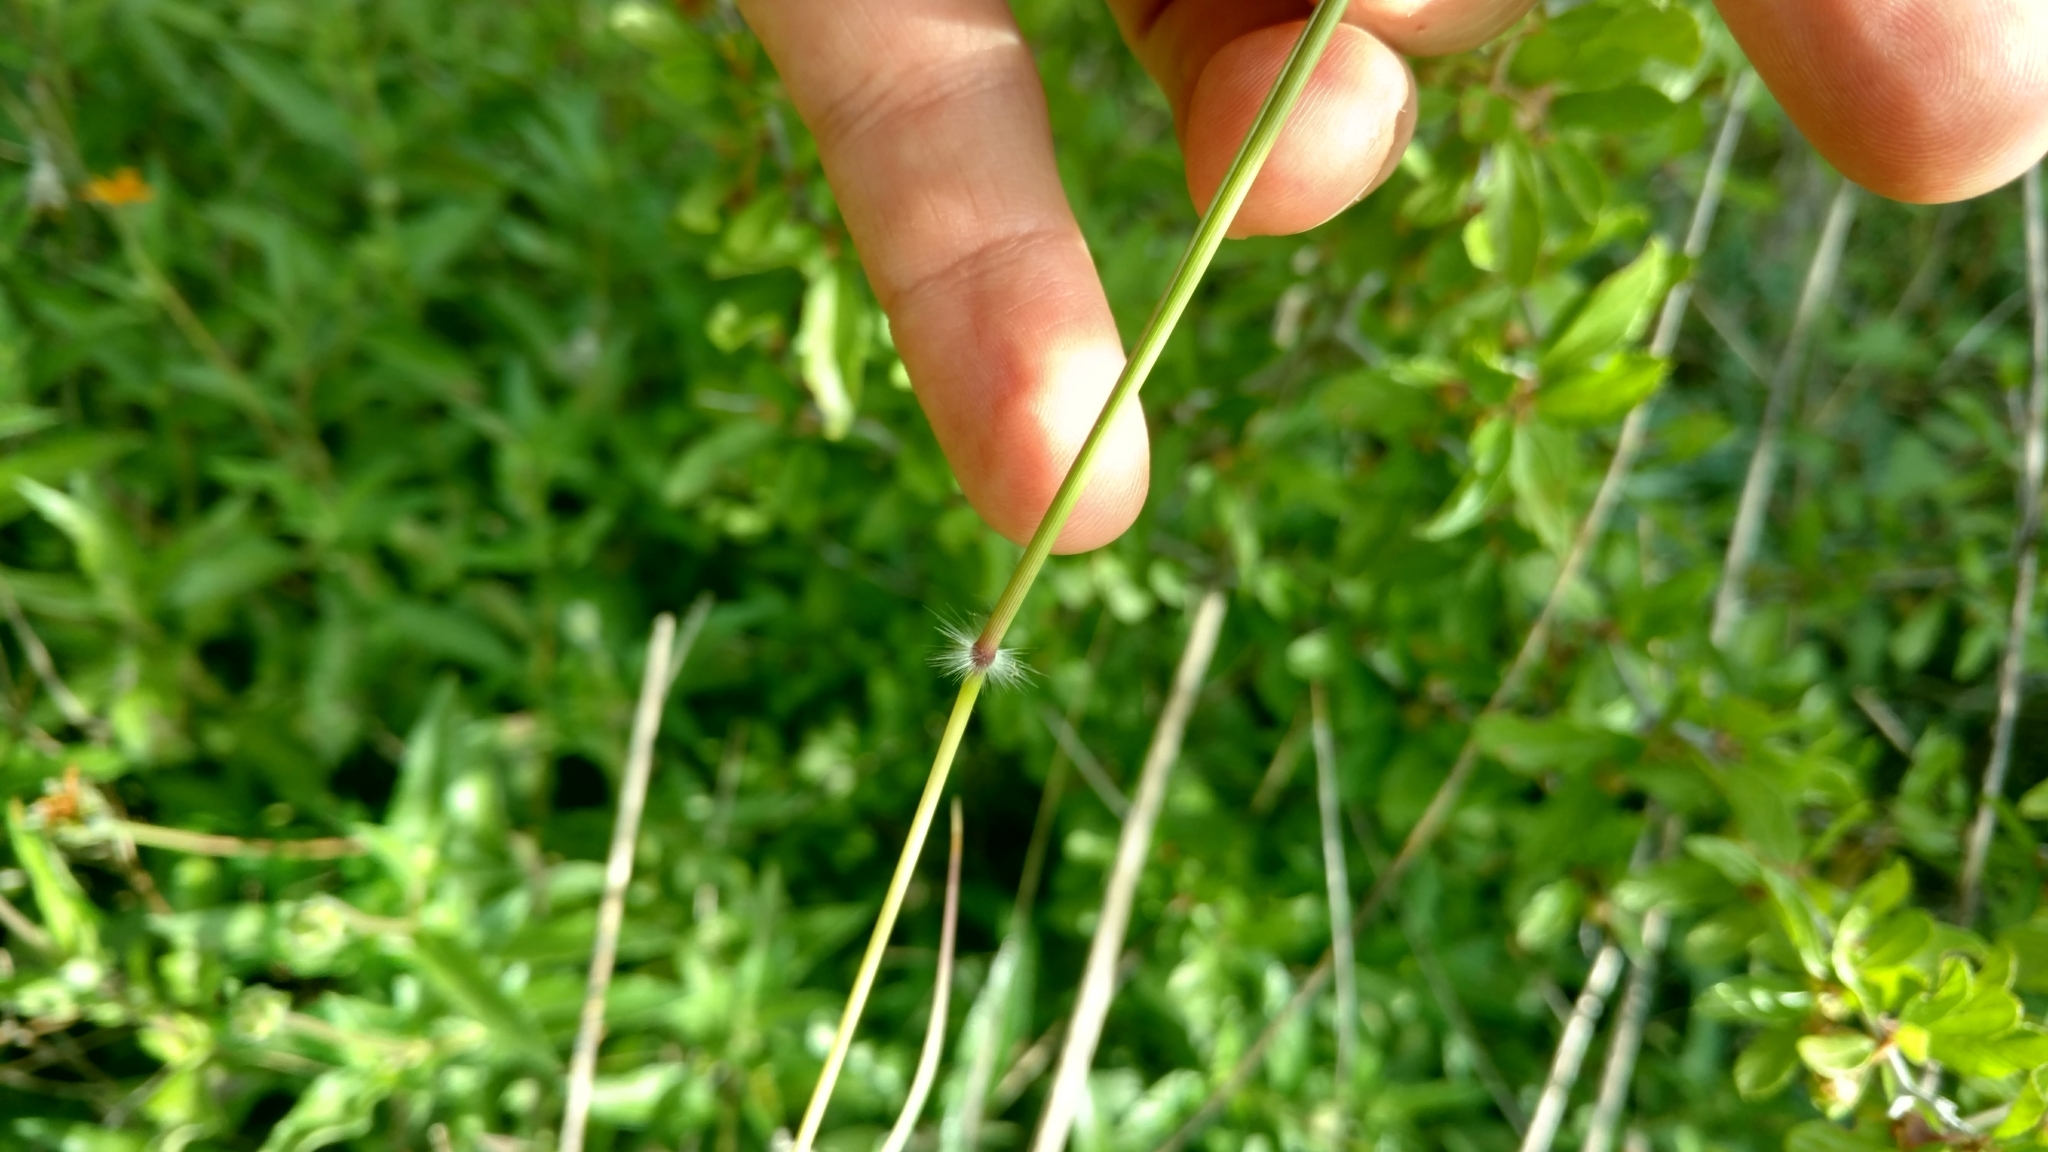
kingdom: Plantae
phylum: Tracheophyta
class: Liliopsida
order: Poales
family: Poaceae
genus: Dichanthium
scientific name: Dichanthium annulatum
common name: Kleberg's bluestem
